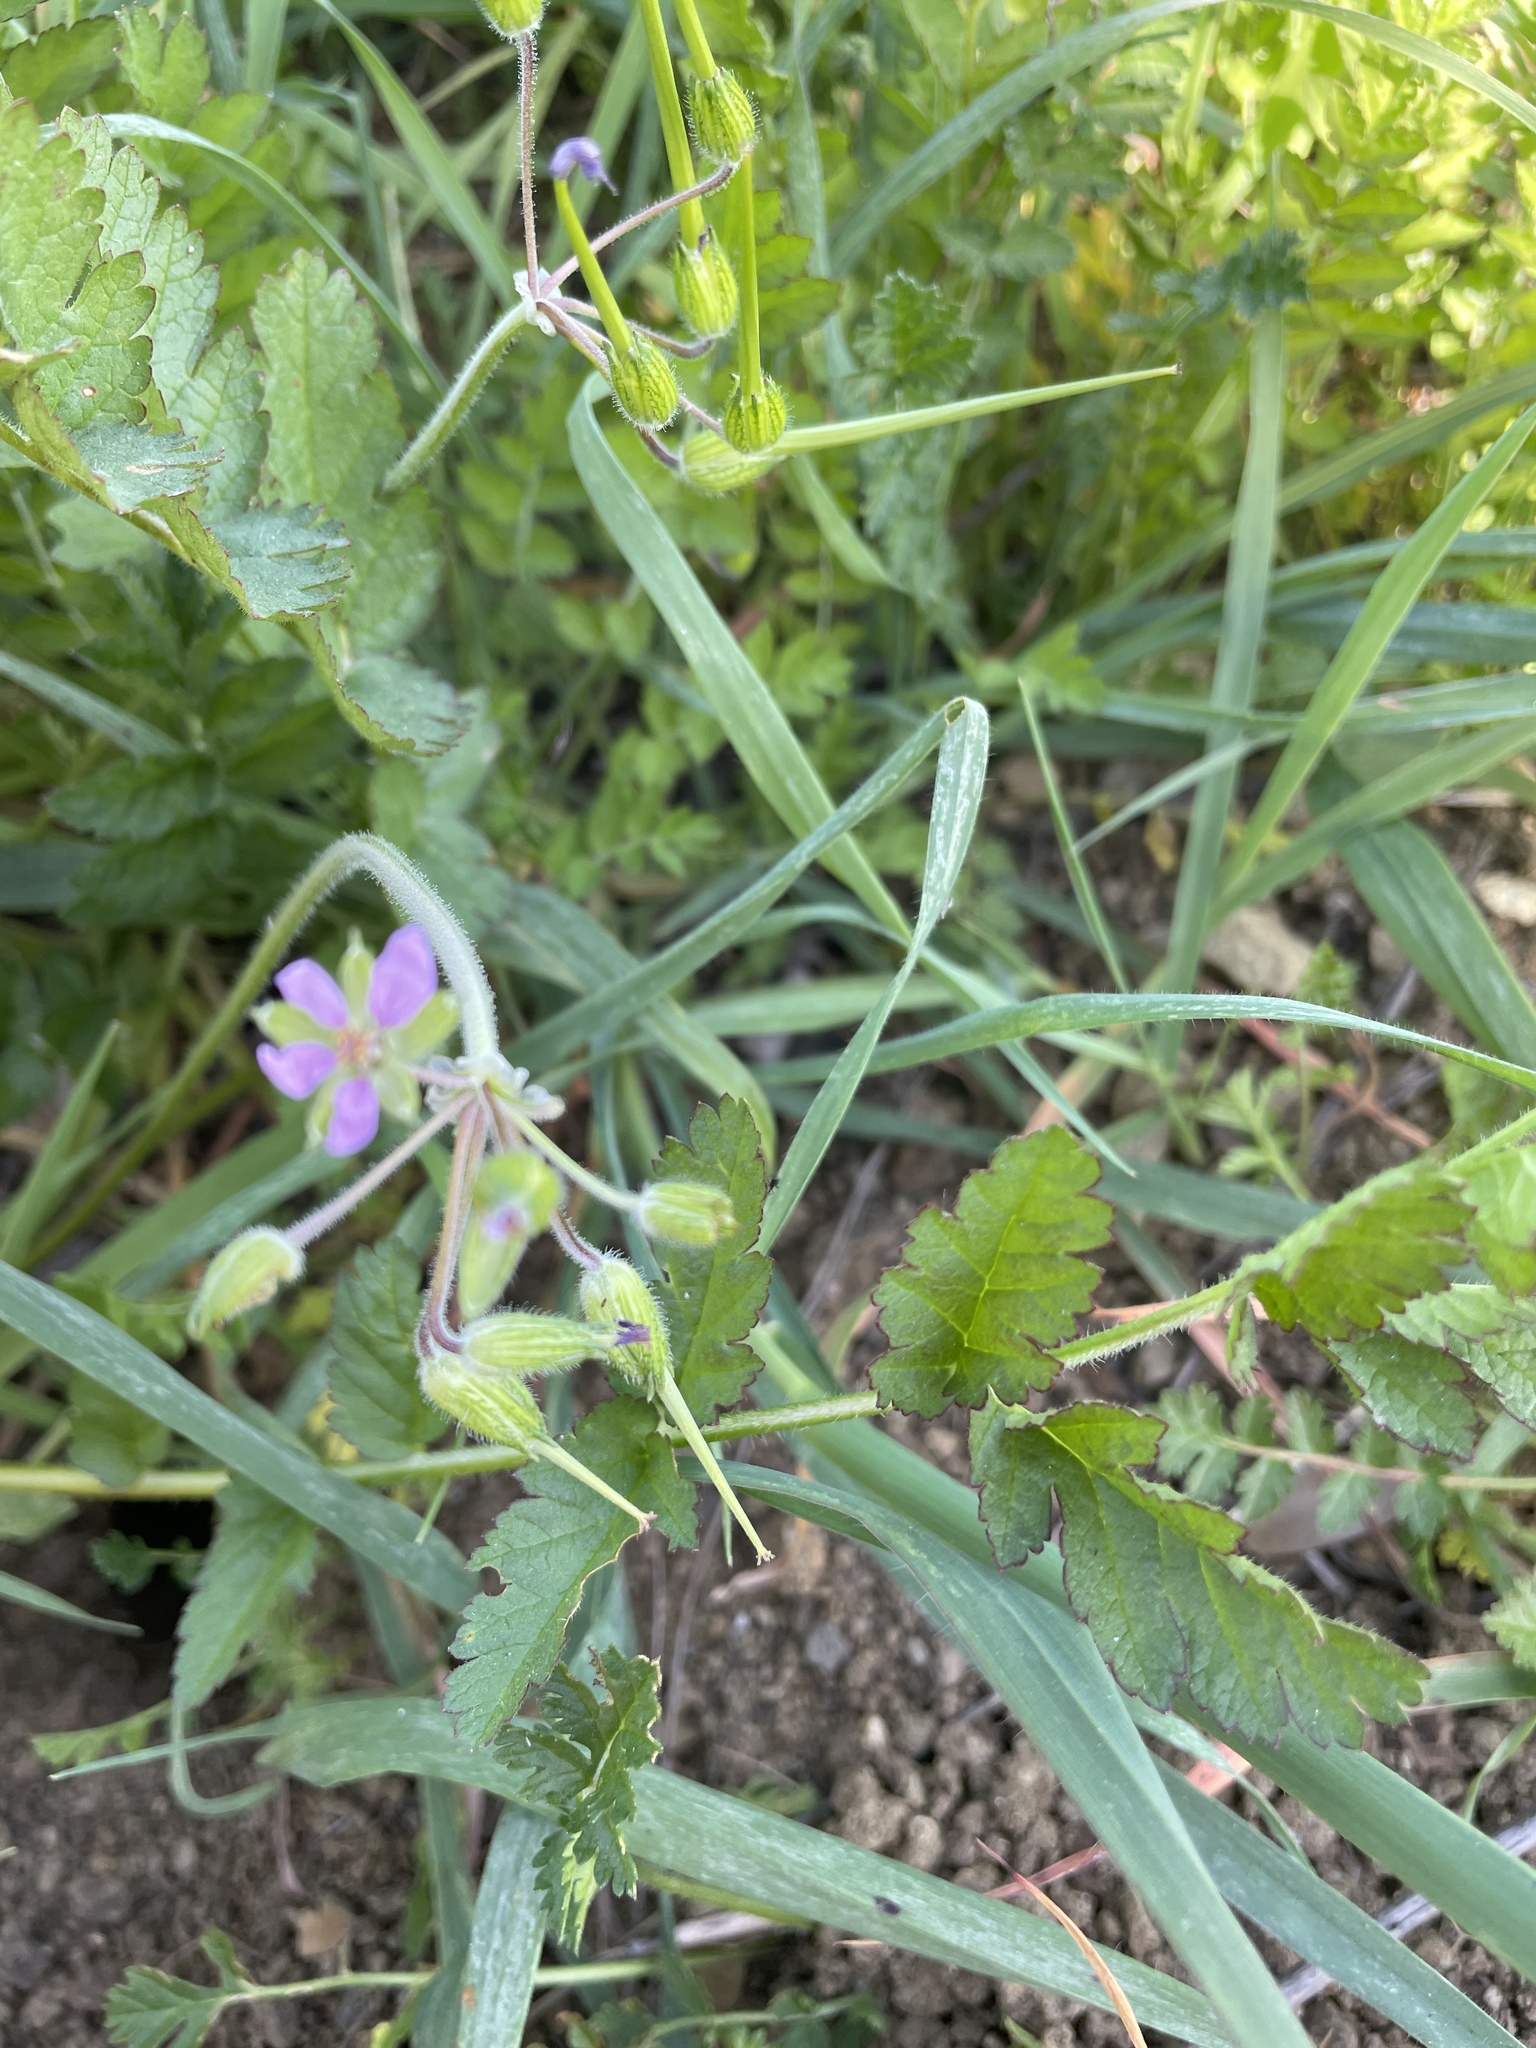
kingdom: Plantae
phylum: Tracheophyta
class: Magnoliopsida
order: Geraniales
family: Geraniaceae
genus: Erodium
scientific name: Erodium moschatum
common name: Musk stork's-bill
